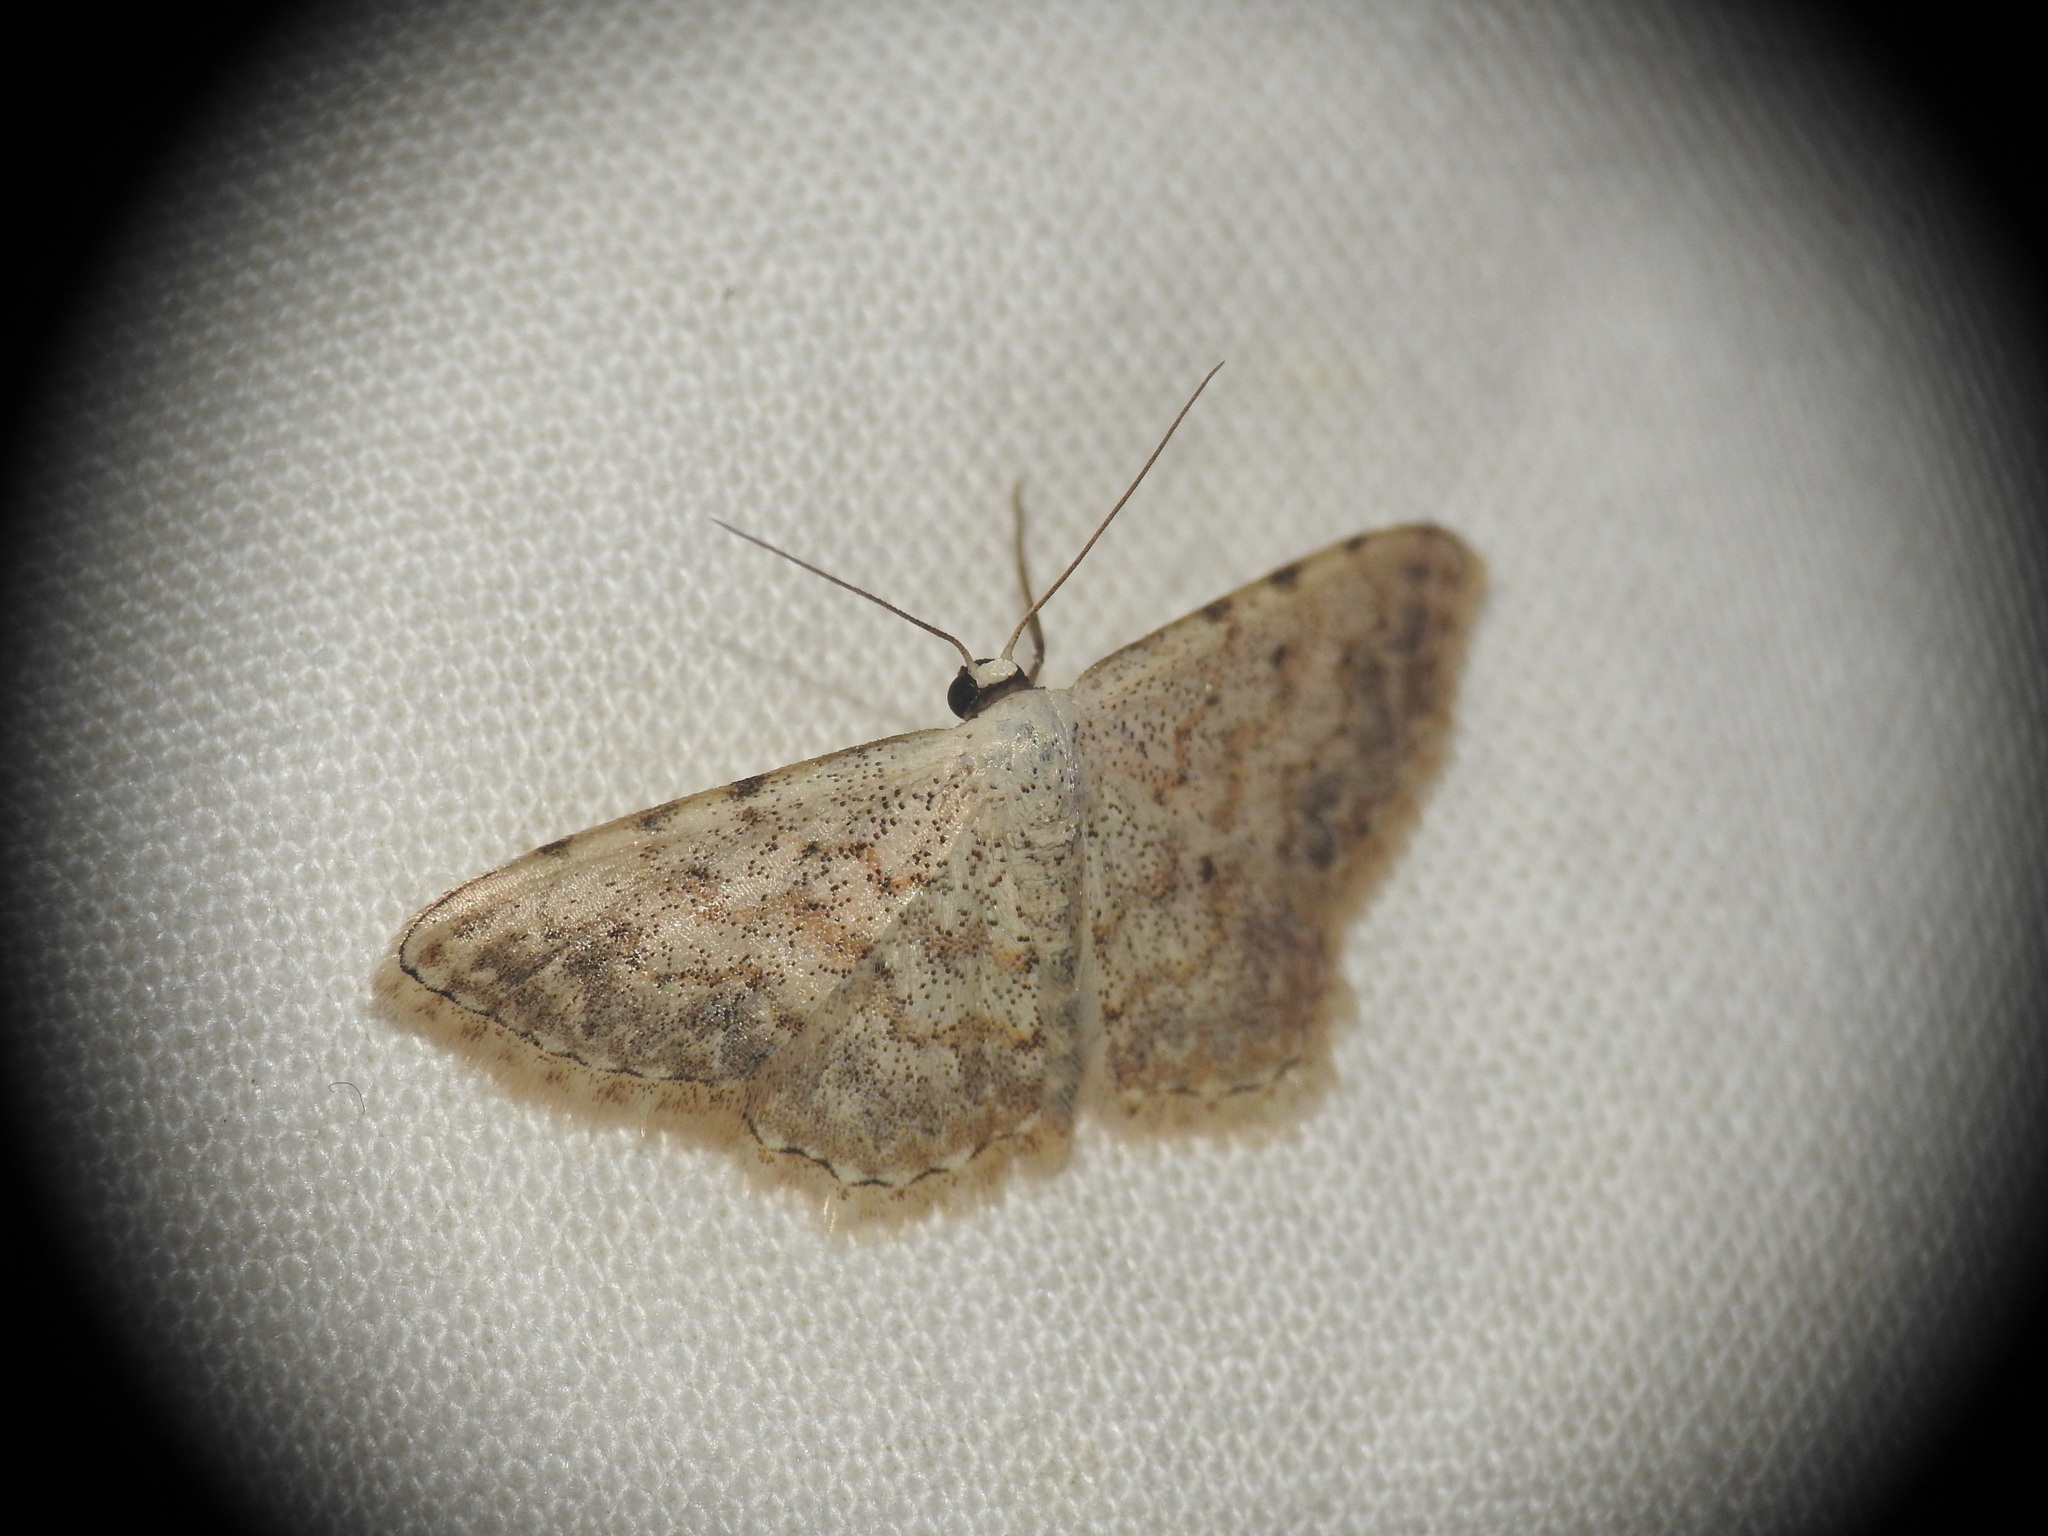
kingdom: Animalia
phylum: Arthropoda
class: Insecta
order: Lepidoptera
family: Geometridae
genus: Scopula
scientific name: Scopula submutata
